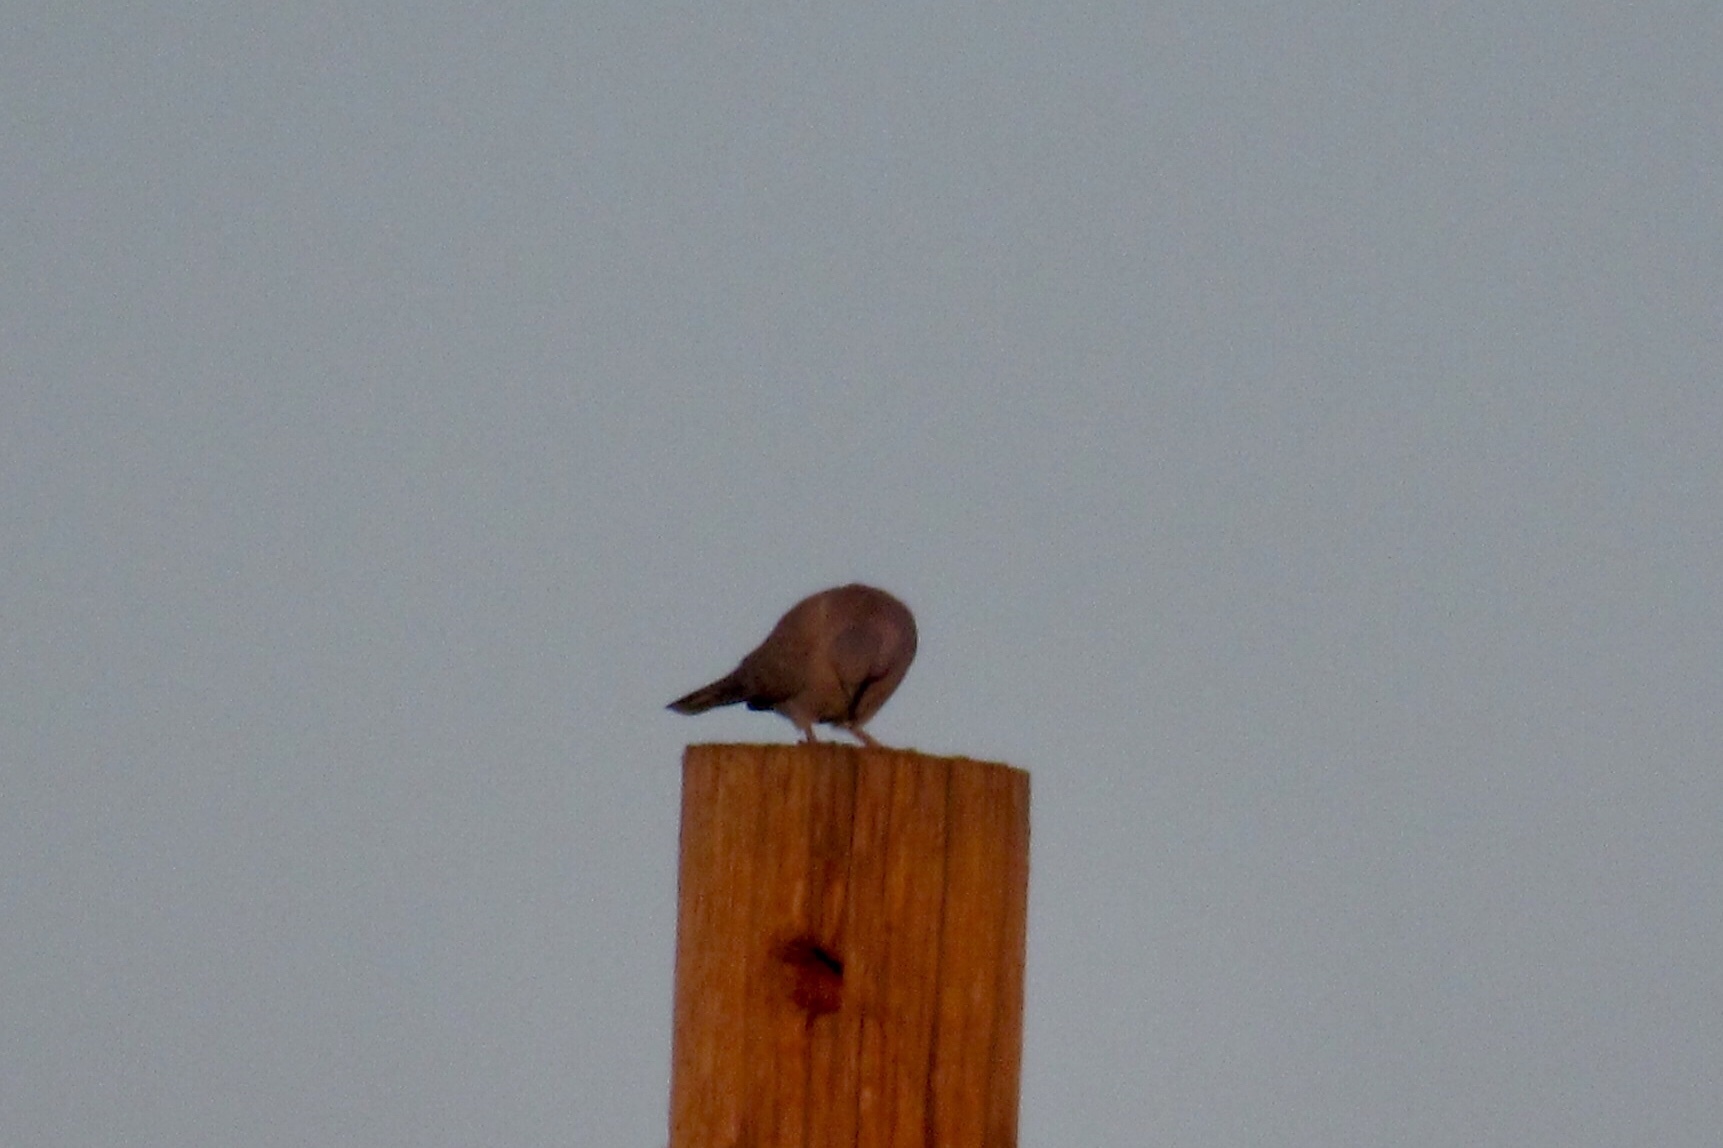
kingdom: Animalia
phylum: Chordata
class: Aves
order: Columbiformes
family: Columbidae
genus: Zenaida
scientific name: Zenaida macroura
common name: Mourning dove
